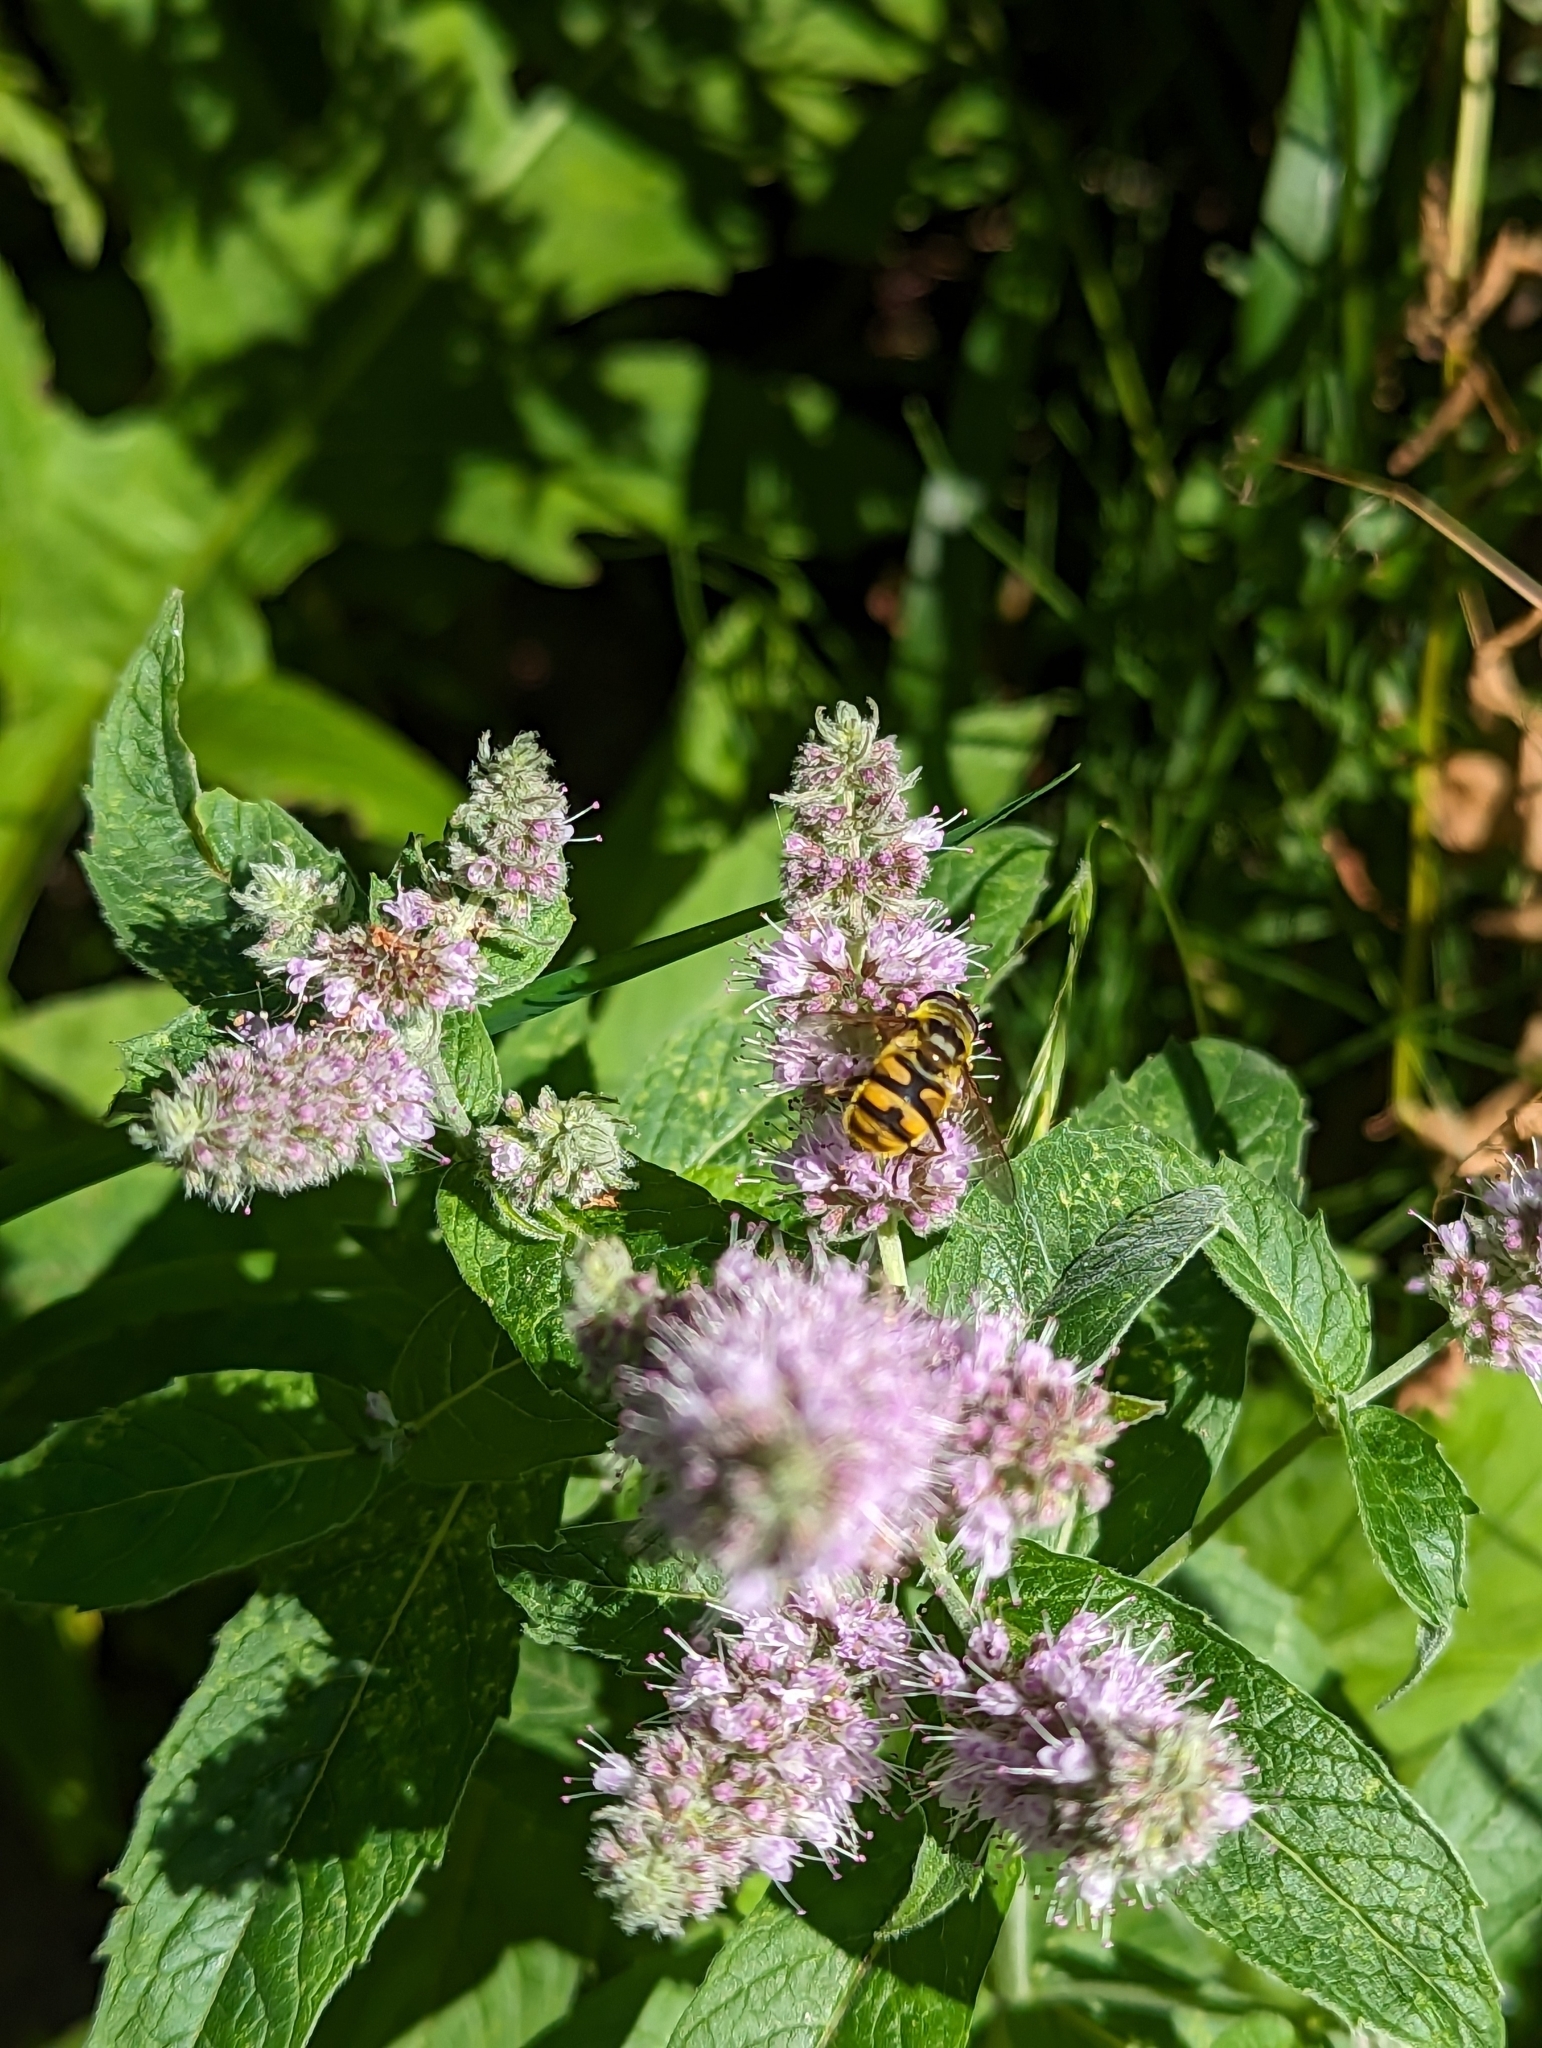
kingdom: Animalia
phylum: Arthropoda
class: Insecta
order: Diptera
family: Syrphidae
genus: Myathropa
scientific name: Myathropa florea
